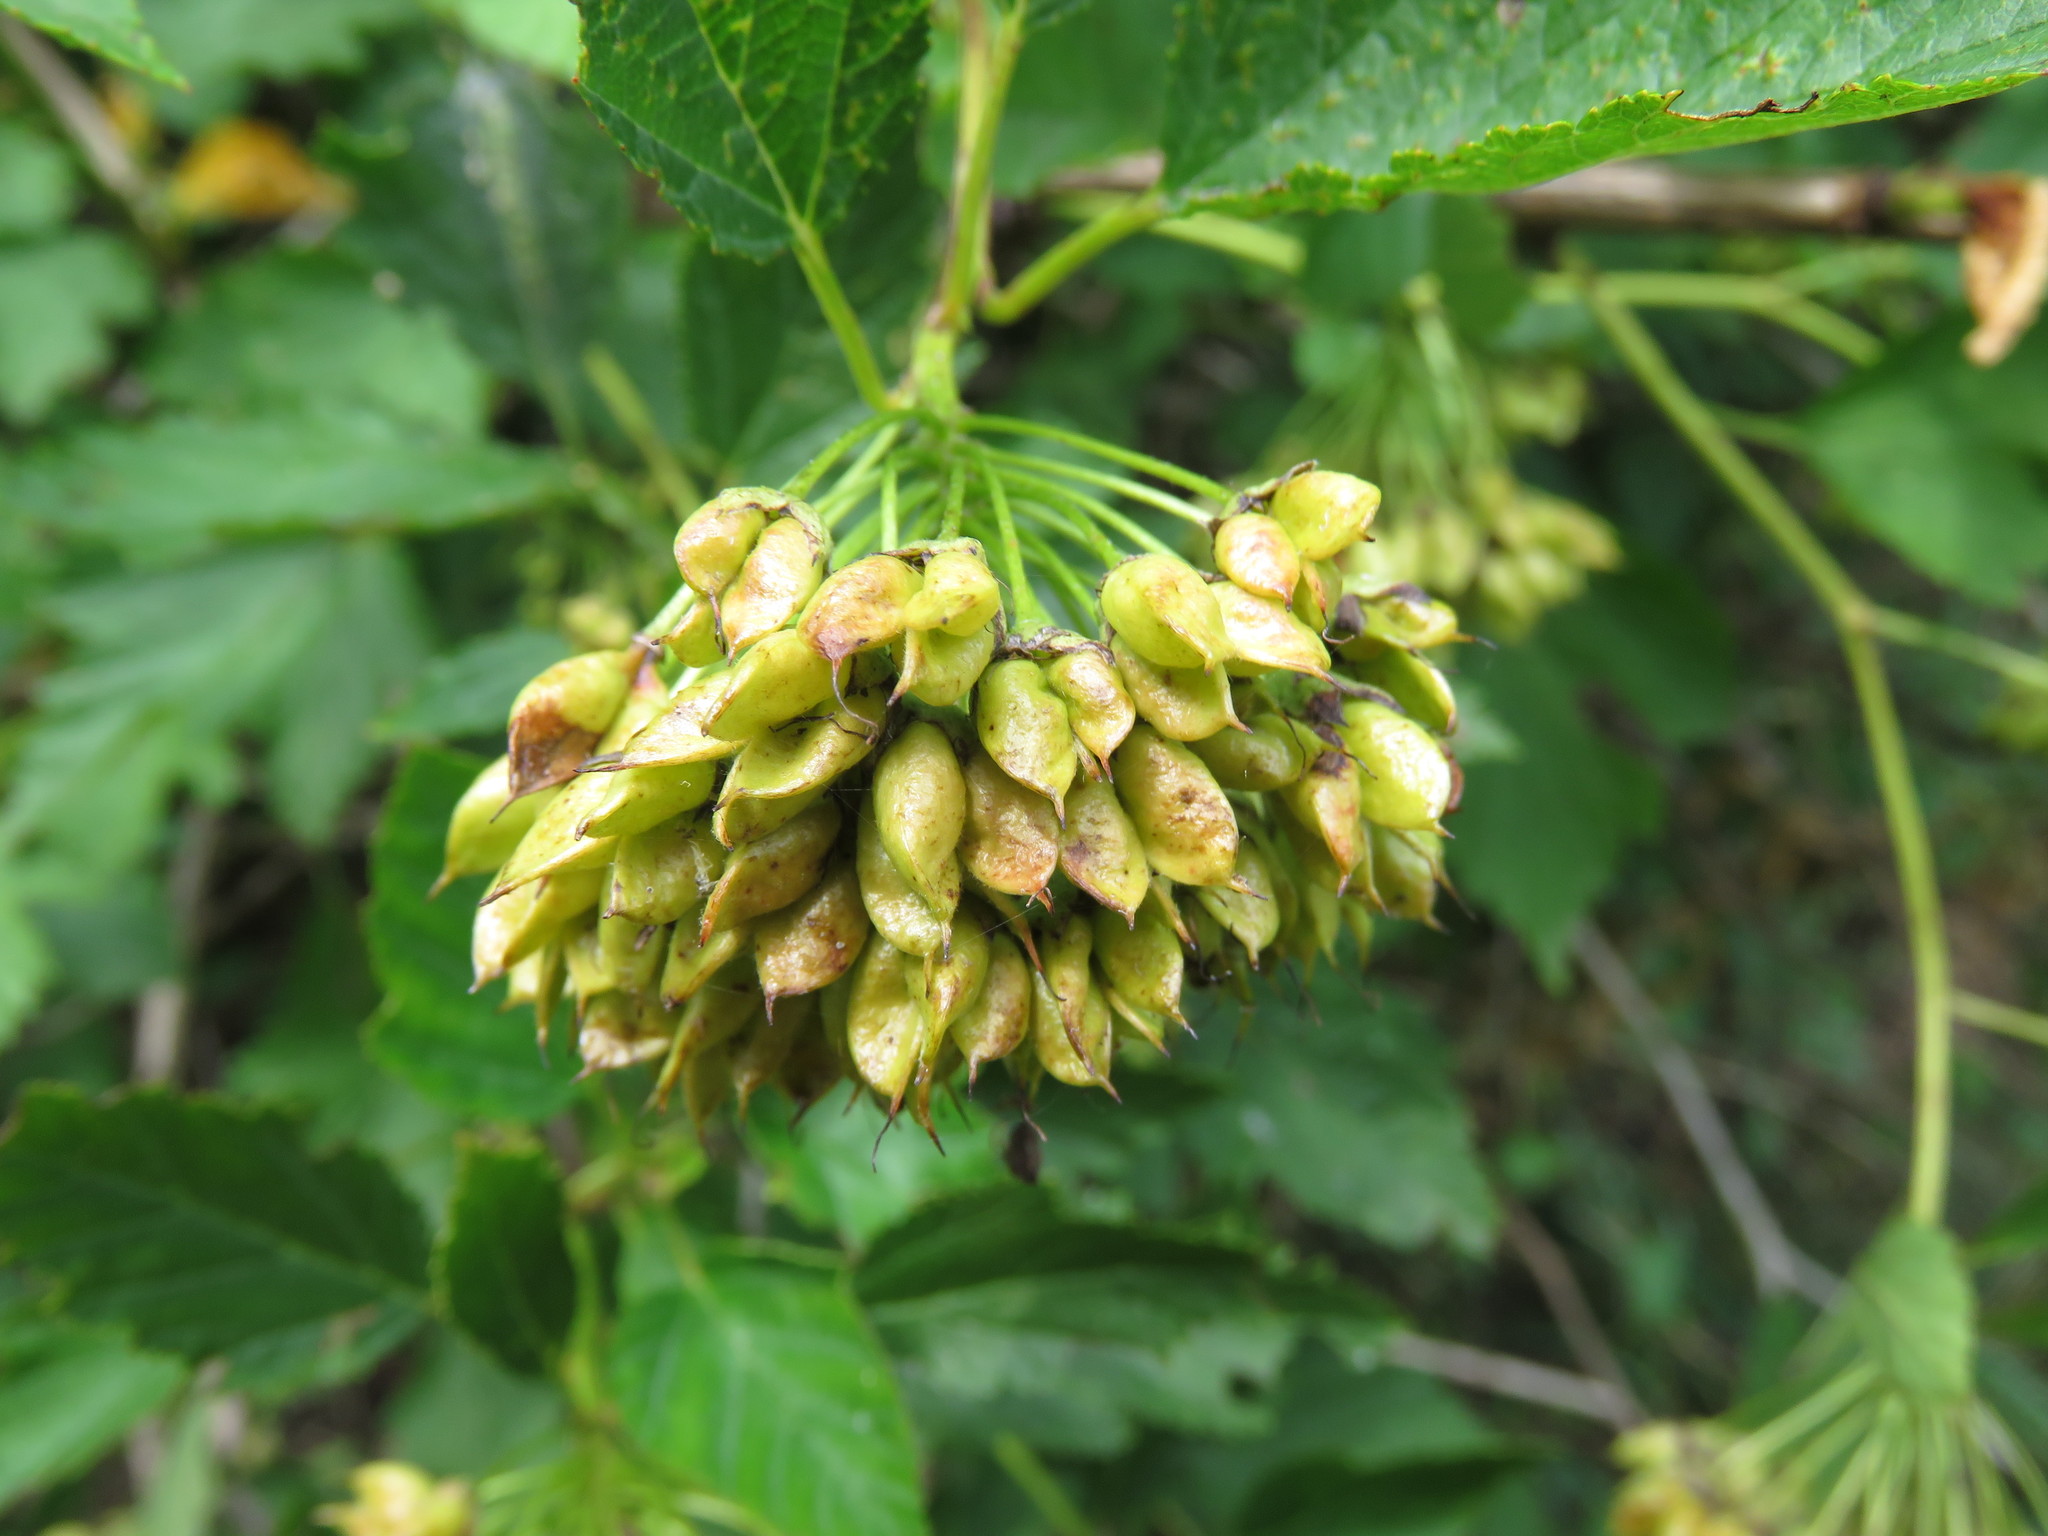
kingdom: Plantae
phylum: Tracheophyta
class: Magnoliopsida
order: Rosales
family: Rosaceae
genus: Physocarpus
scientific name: Physocarpus opulifolius
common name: Ninebark
